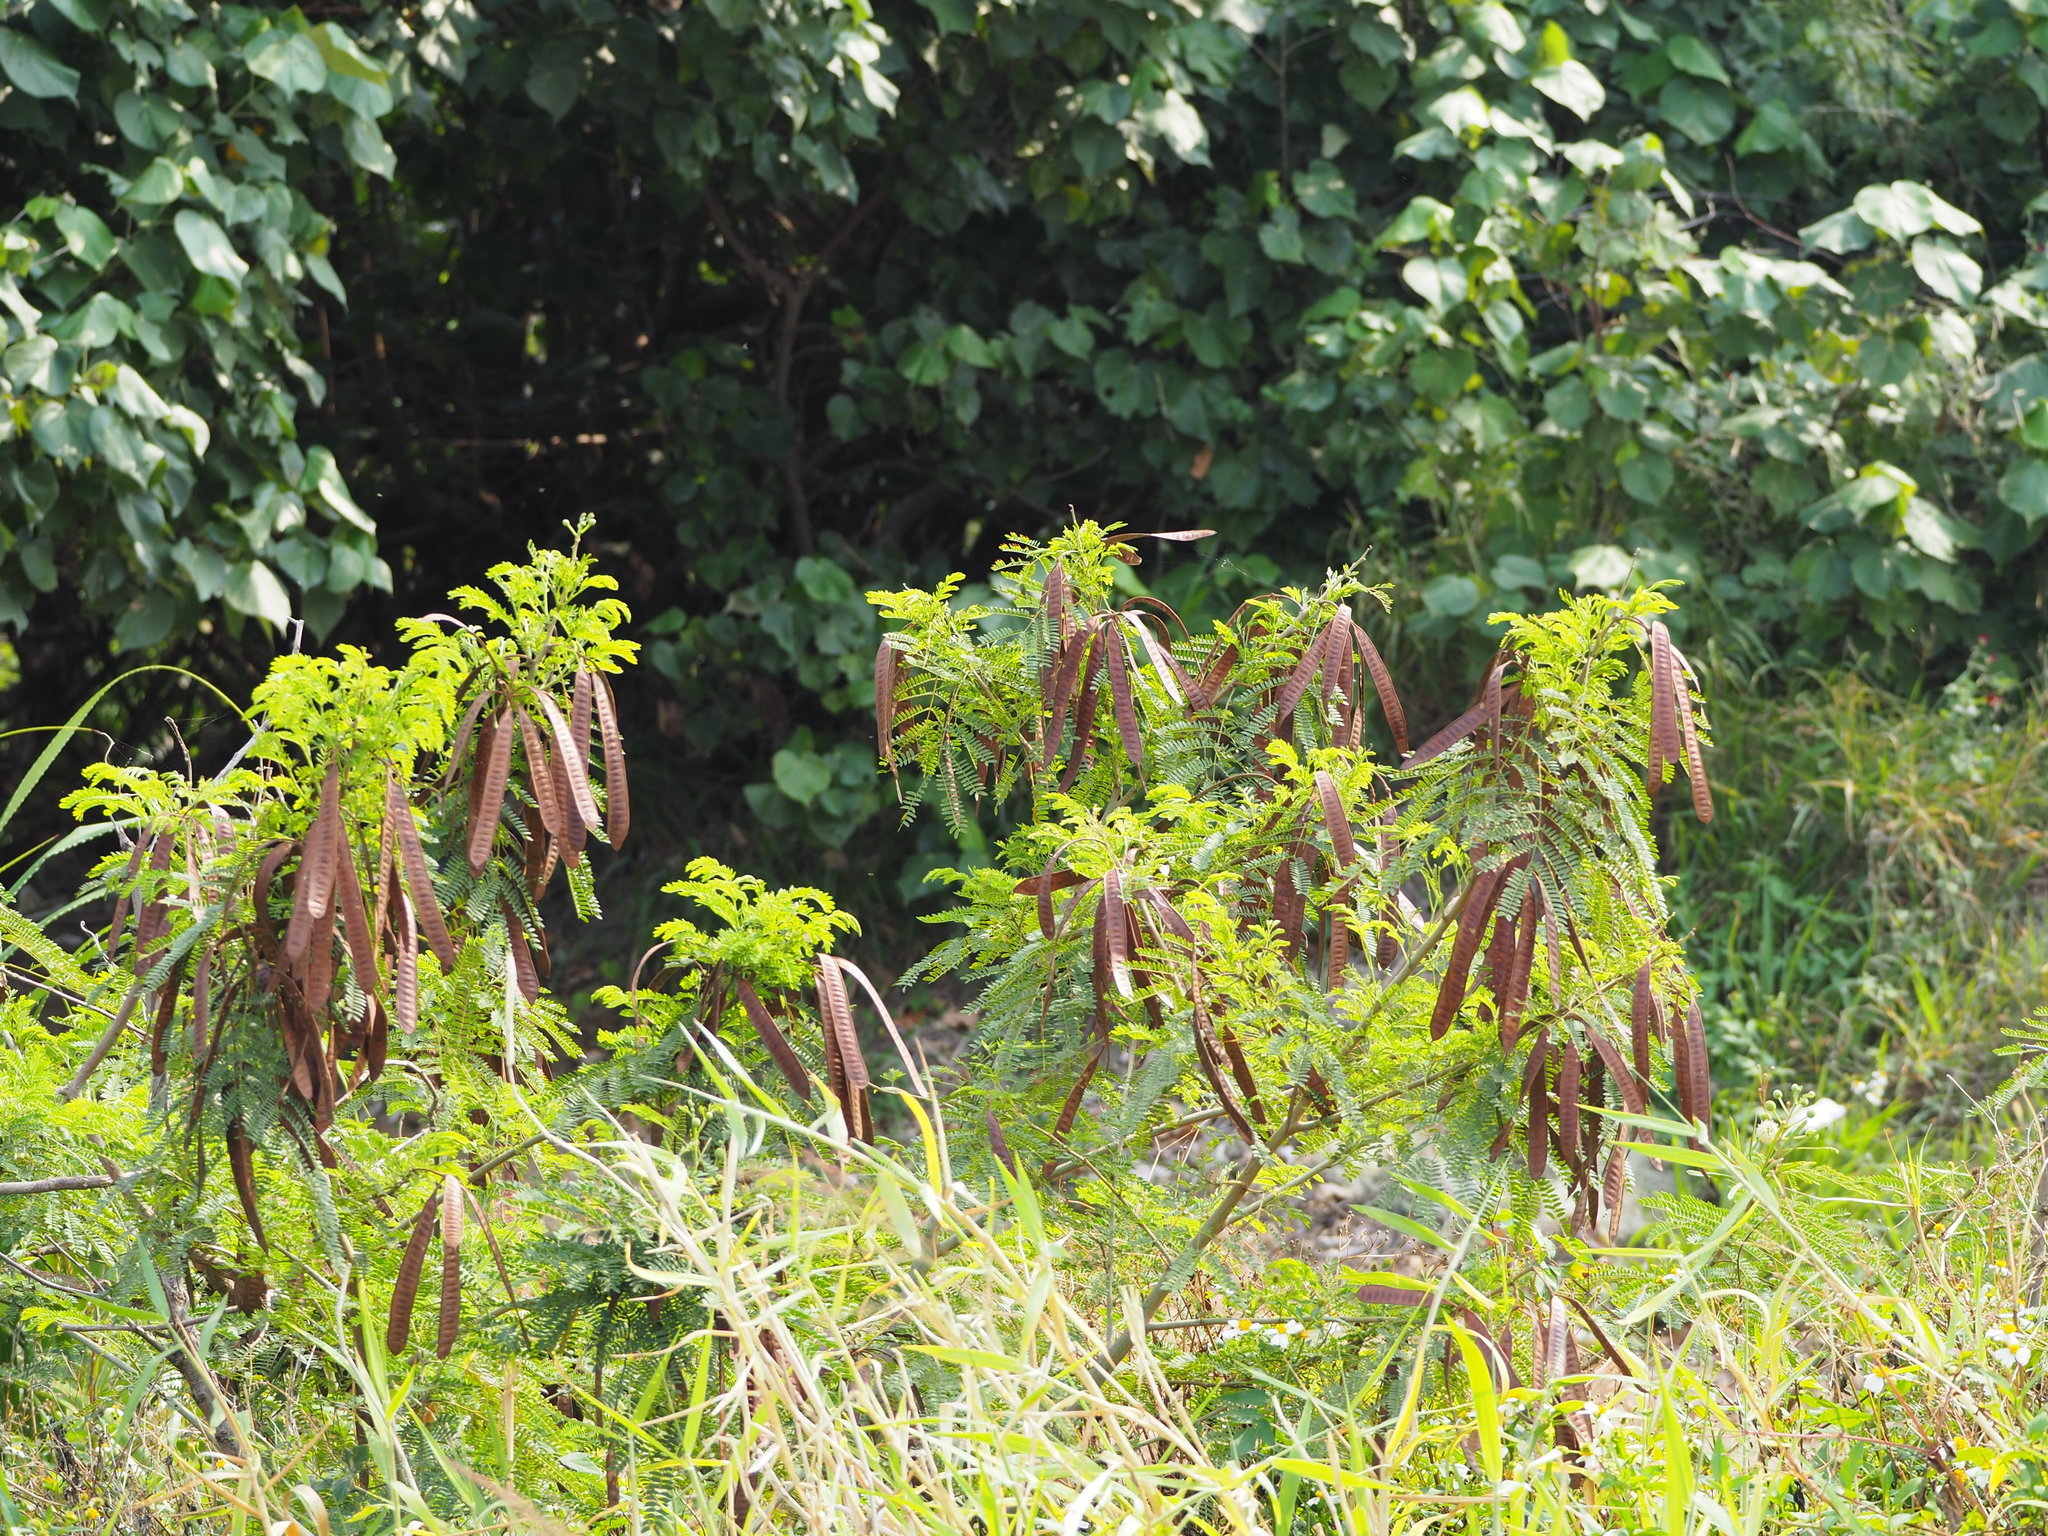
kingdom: Plantae
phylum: Tracheophyta
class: Magnoliopsida
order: Fabales
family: Fabaceae
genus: Leucaena
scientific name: Leucaena leucocephala
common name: White leadtree
